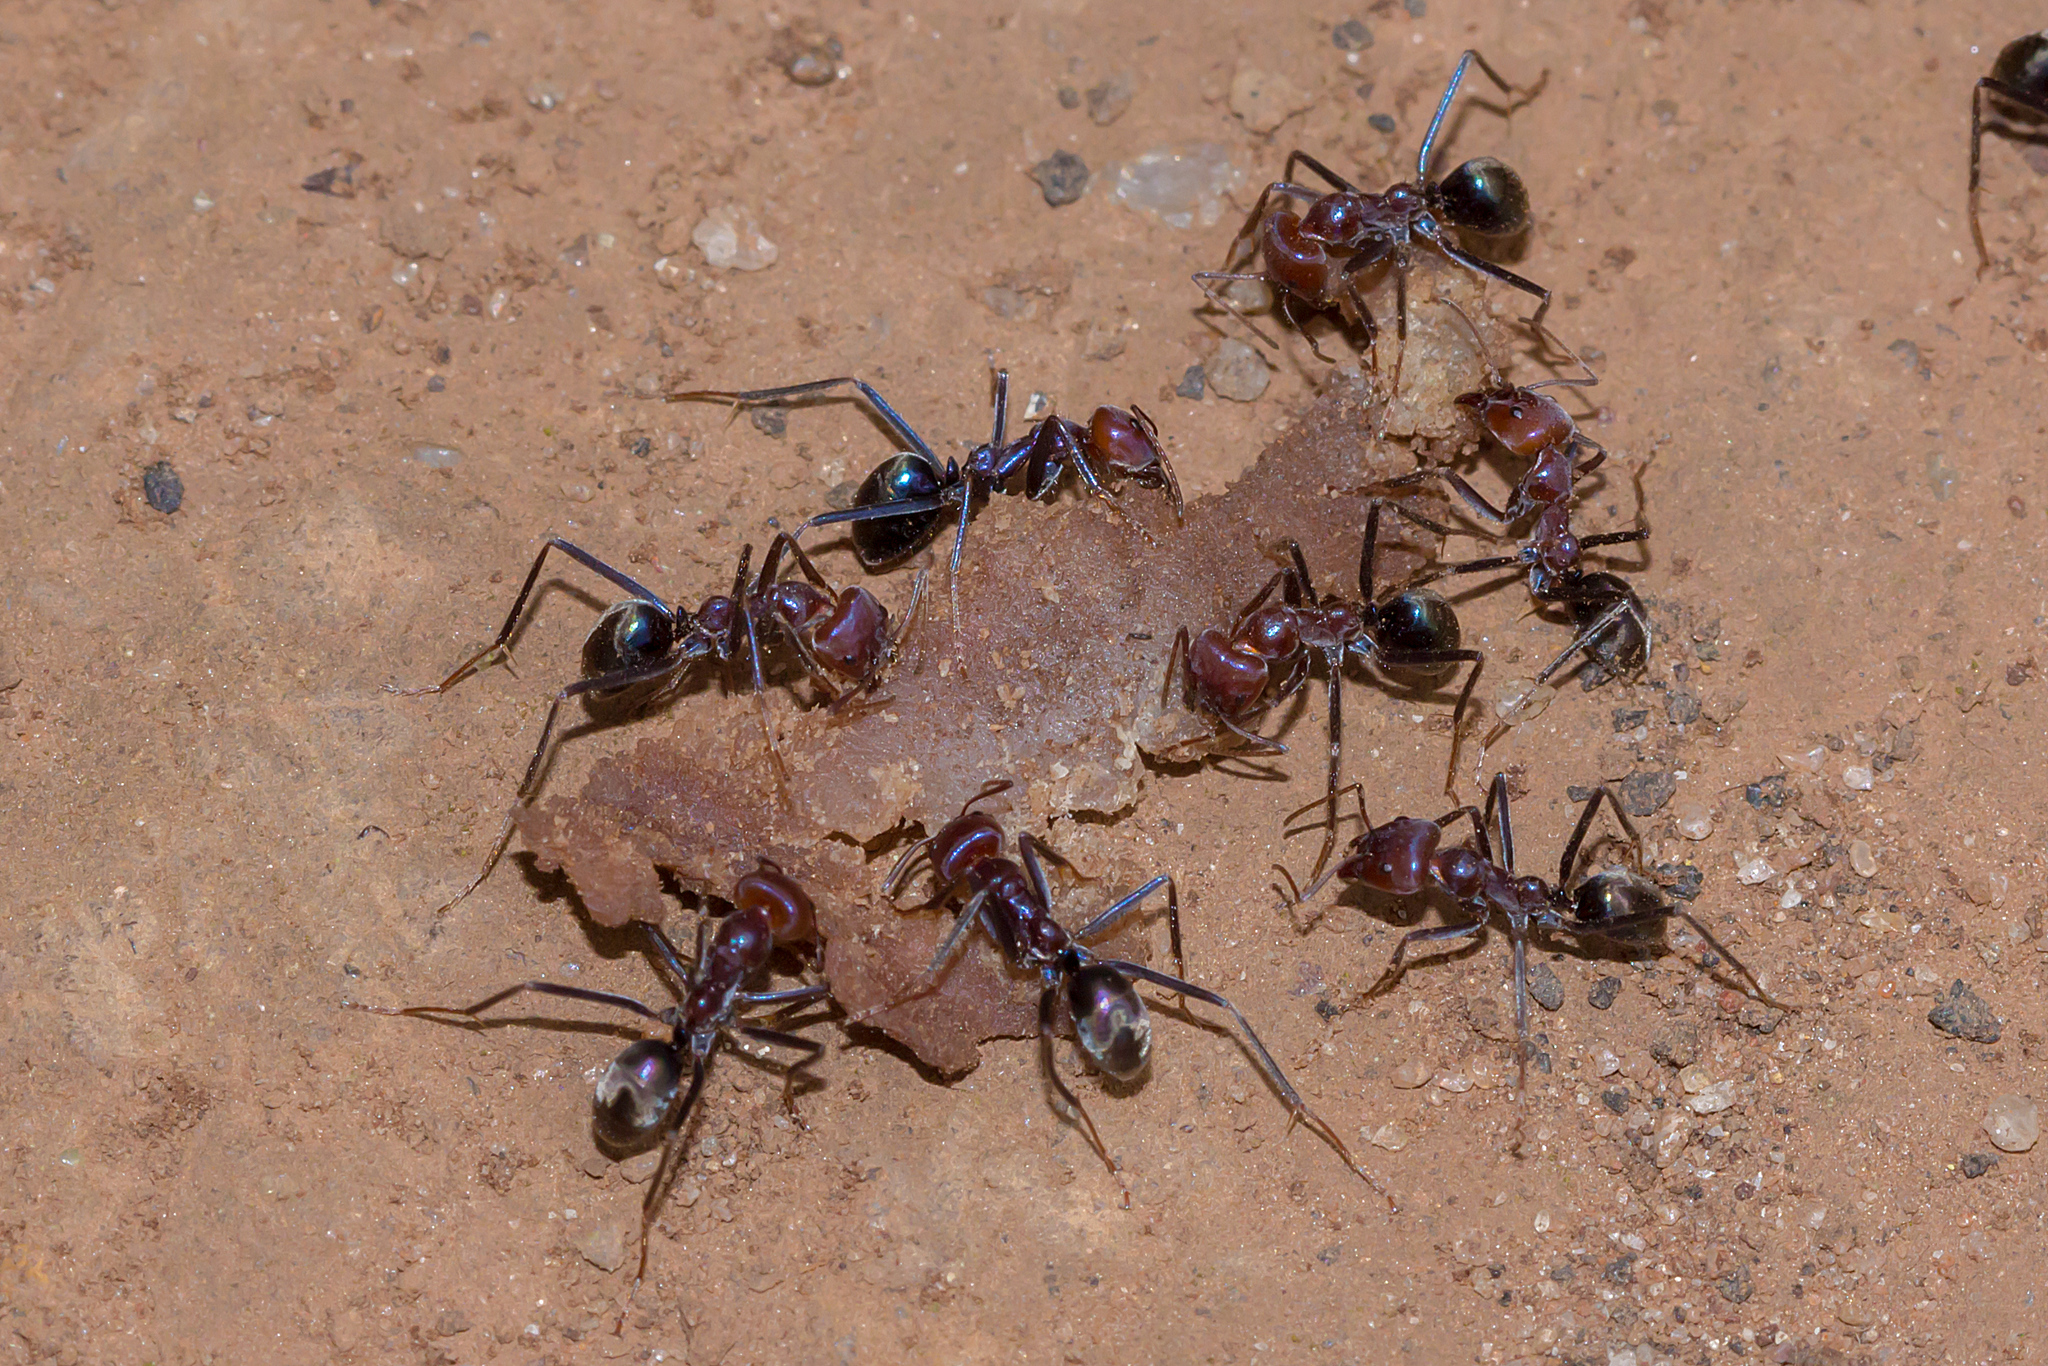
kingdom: Animalia
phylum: Arthropoda
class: Insecta
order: Hymenoptera
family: Formicidae
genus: Iridomyrmex
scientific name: Iridomyrmex purpureus
